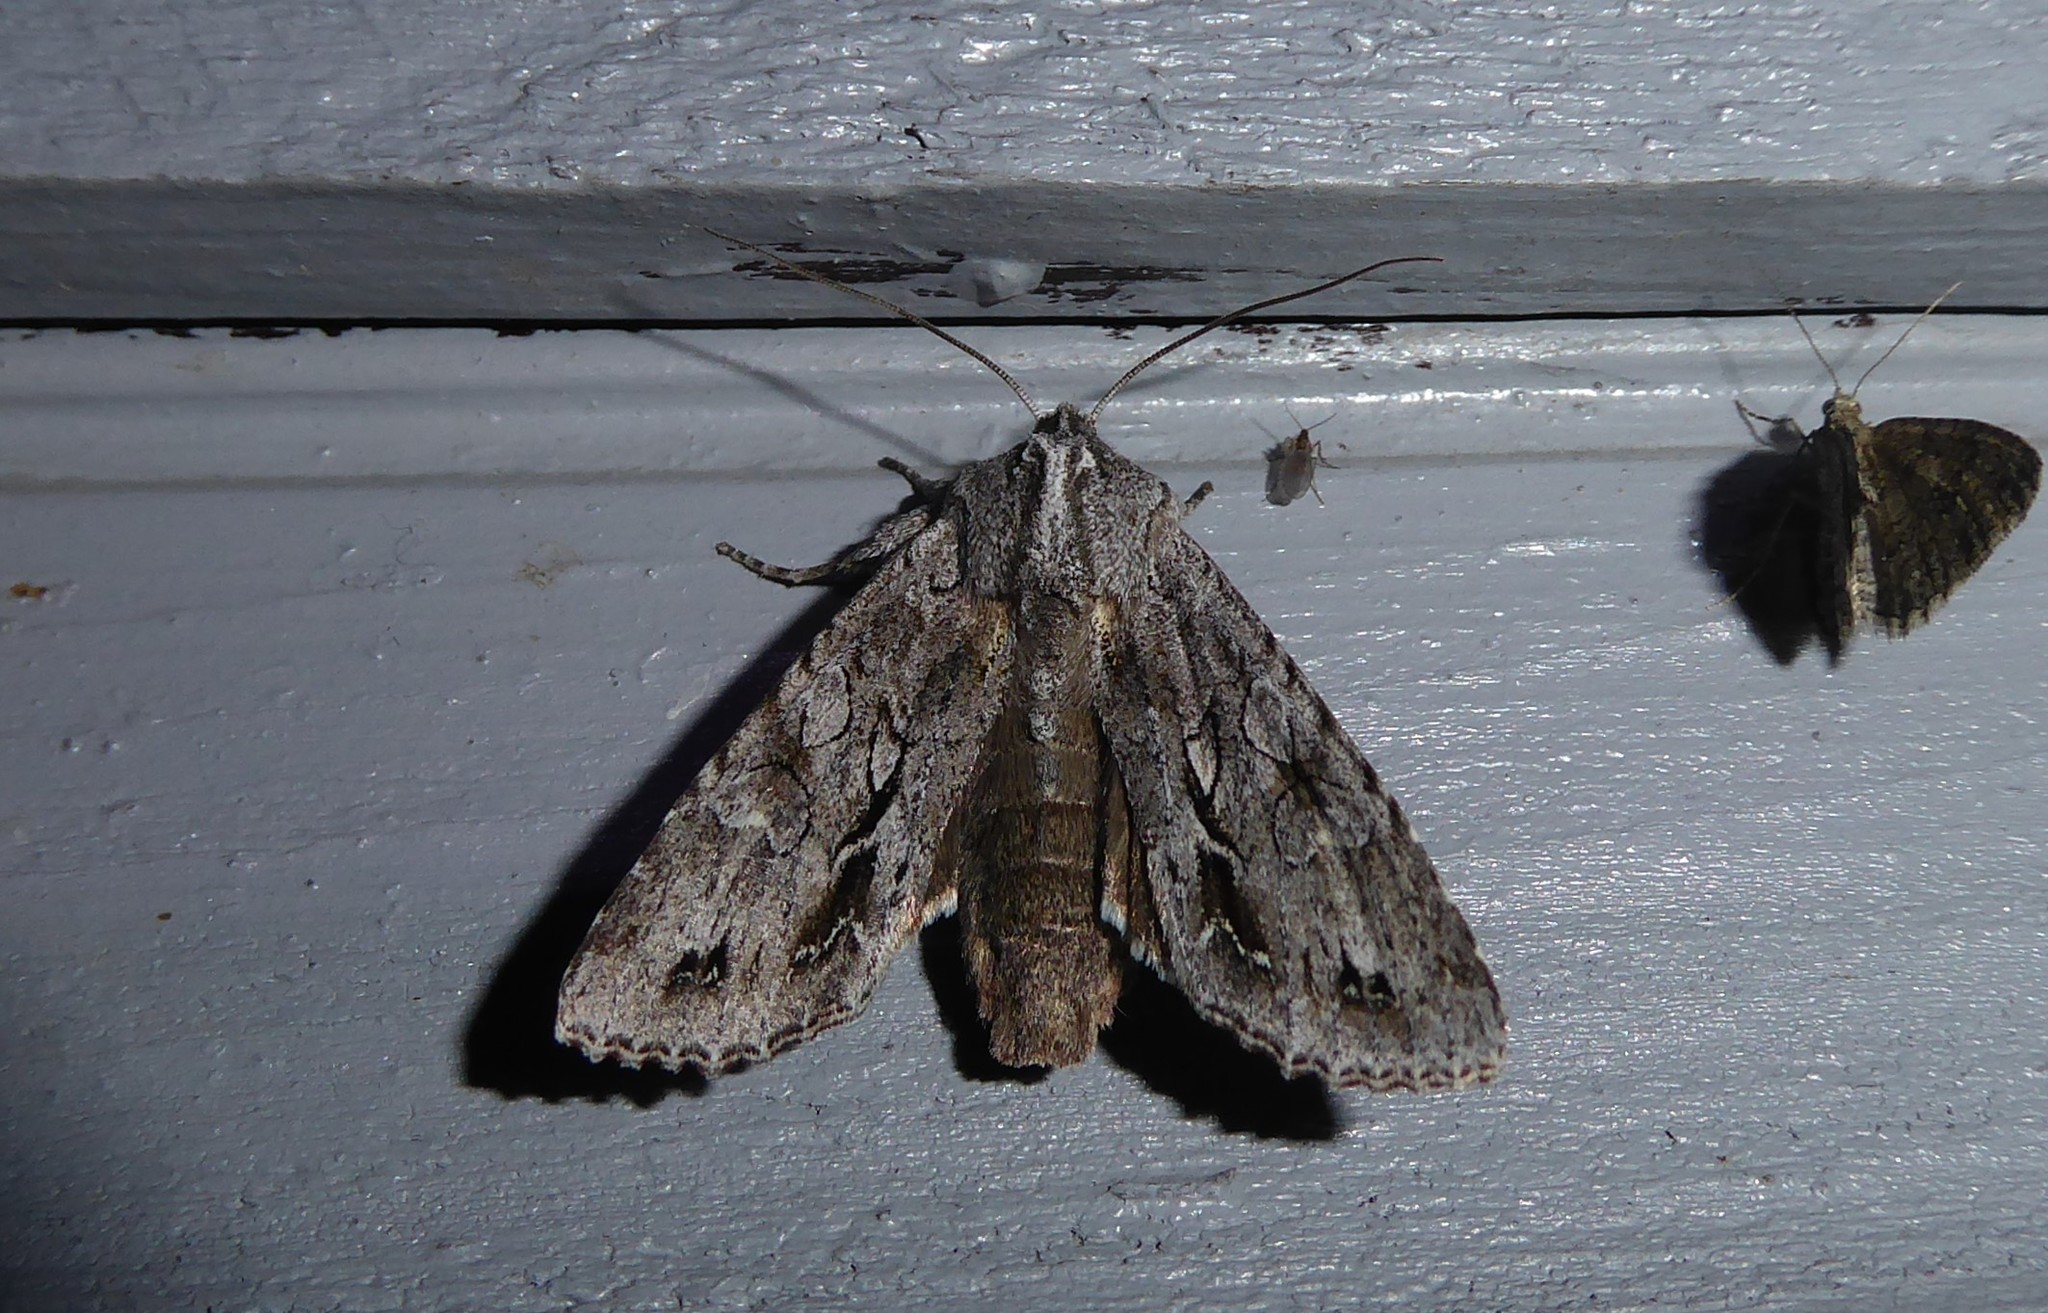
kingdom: Animalia
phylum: Arthropoda
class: Insecta
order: Lepidoptera
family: Noctuidae
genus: Ichneutica
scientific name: Ichneutica
